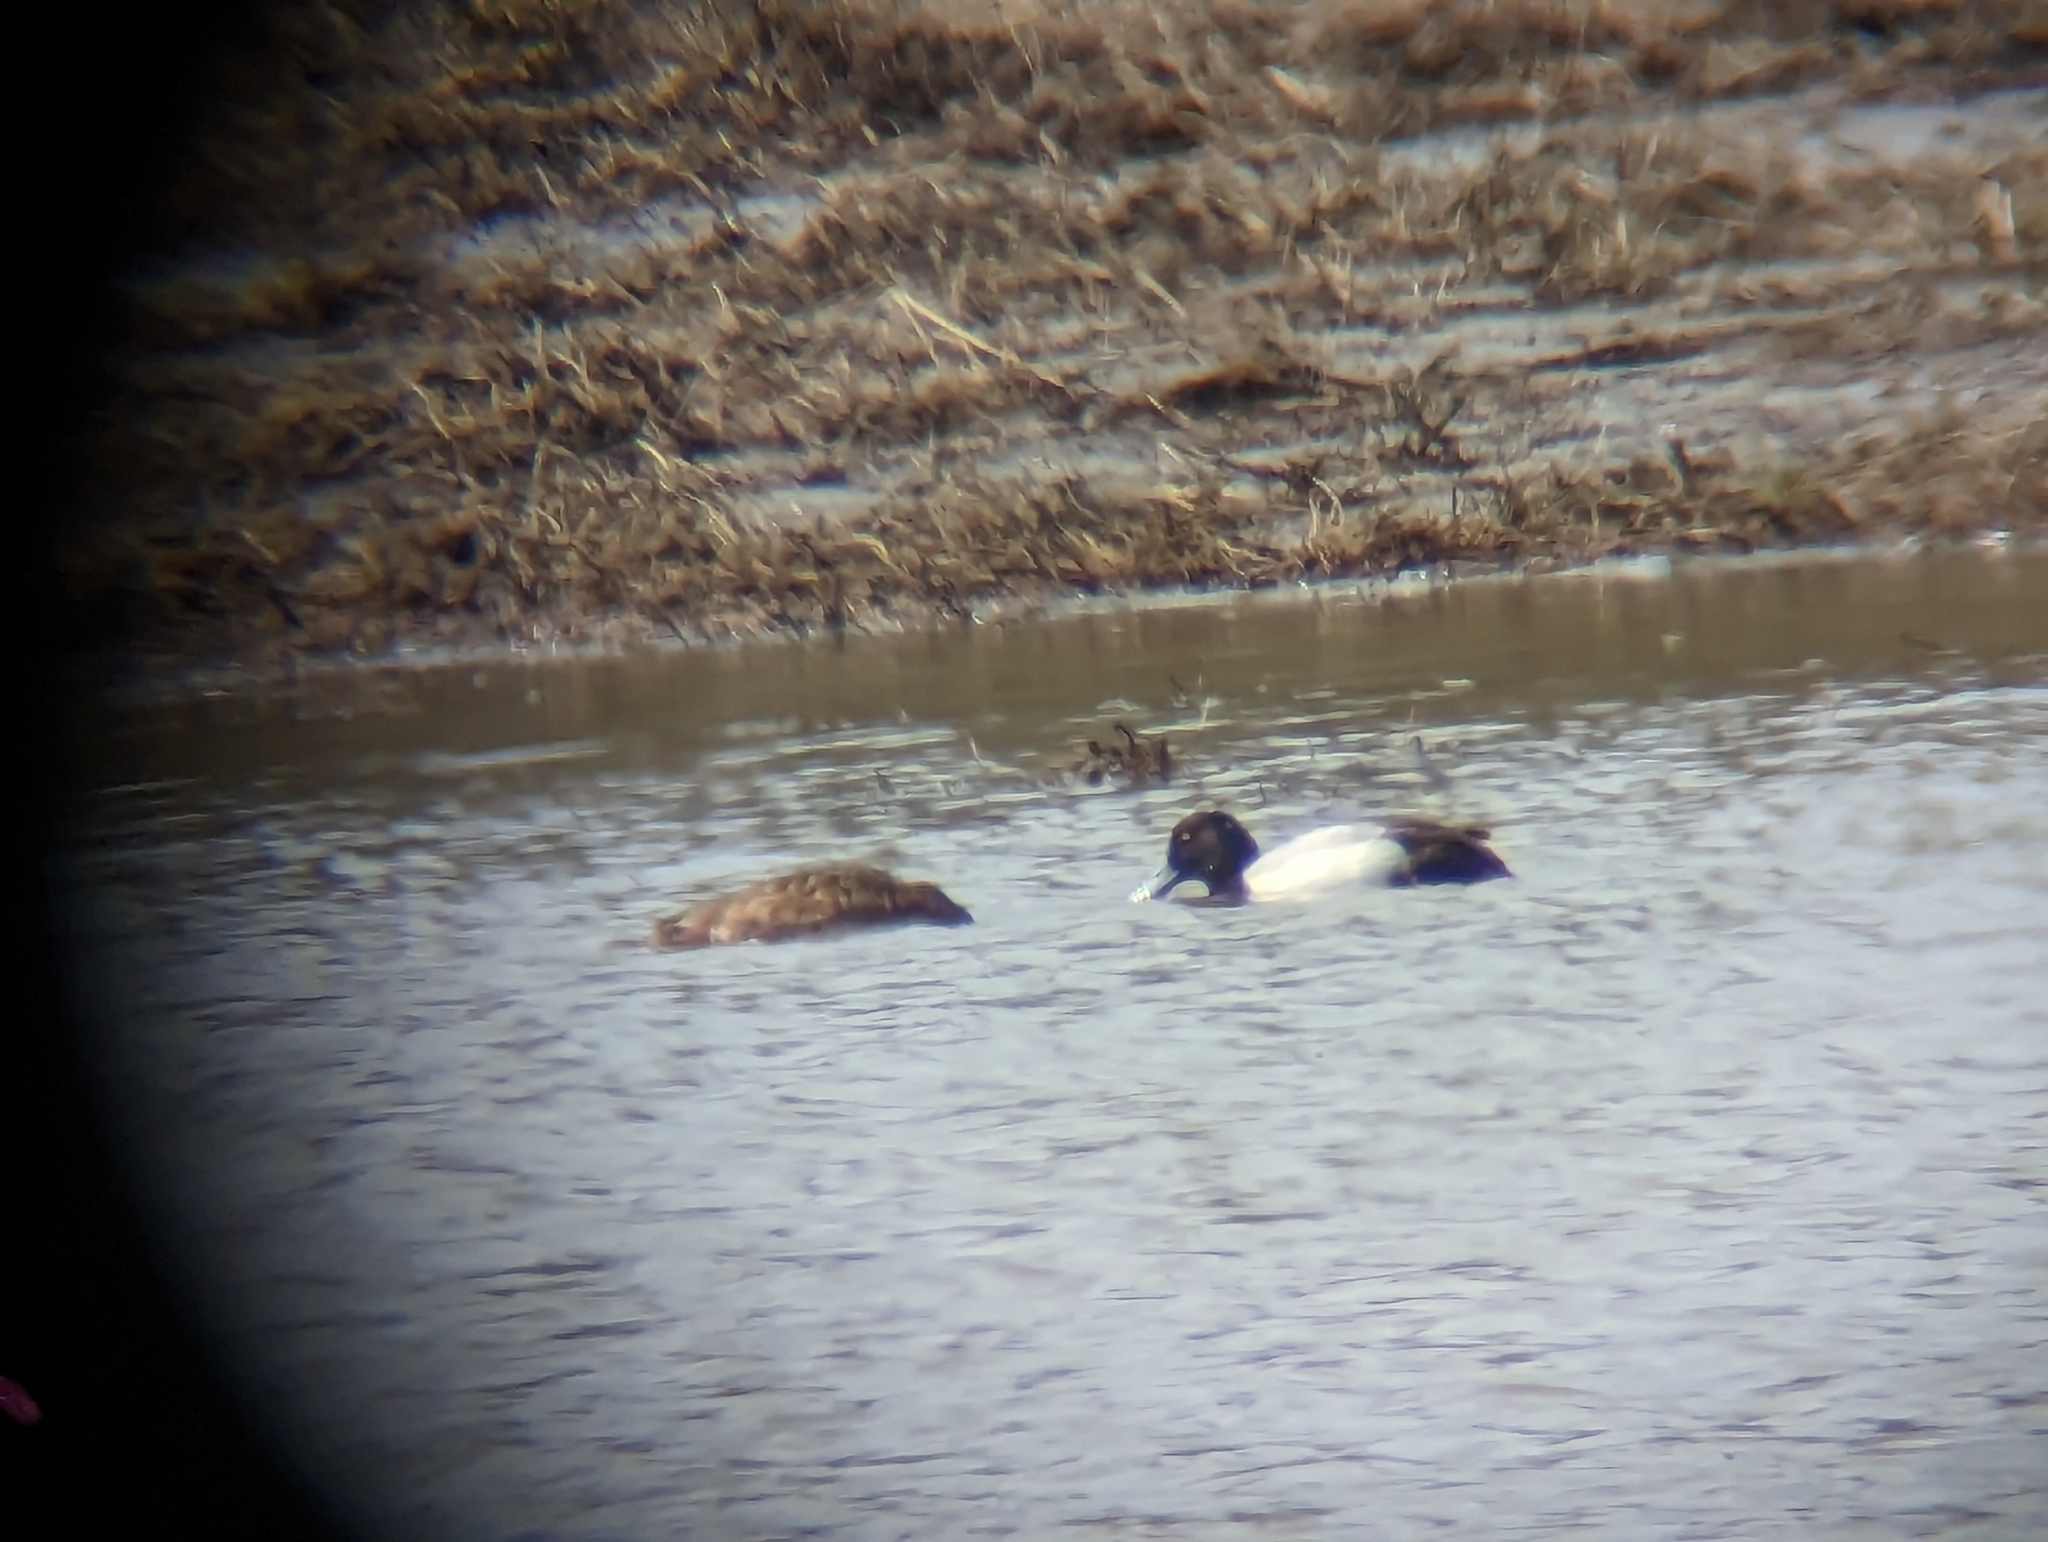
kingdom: Animalia
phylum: Chordata
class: Aves
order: Anseriformes
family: Anatidae
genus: Aythya
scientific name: Aythya affinis
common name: Lesser scaup
